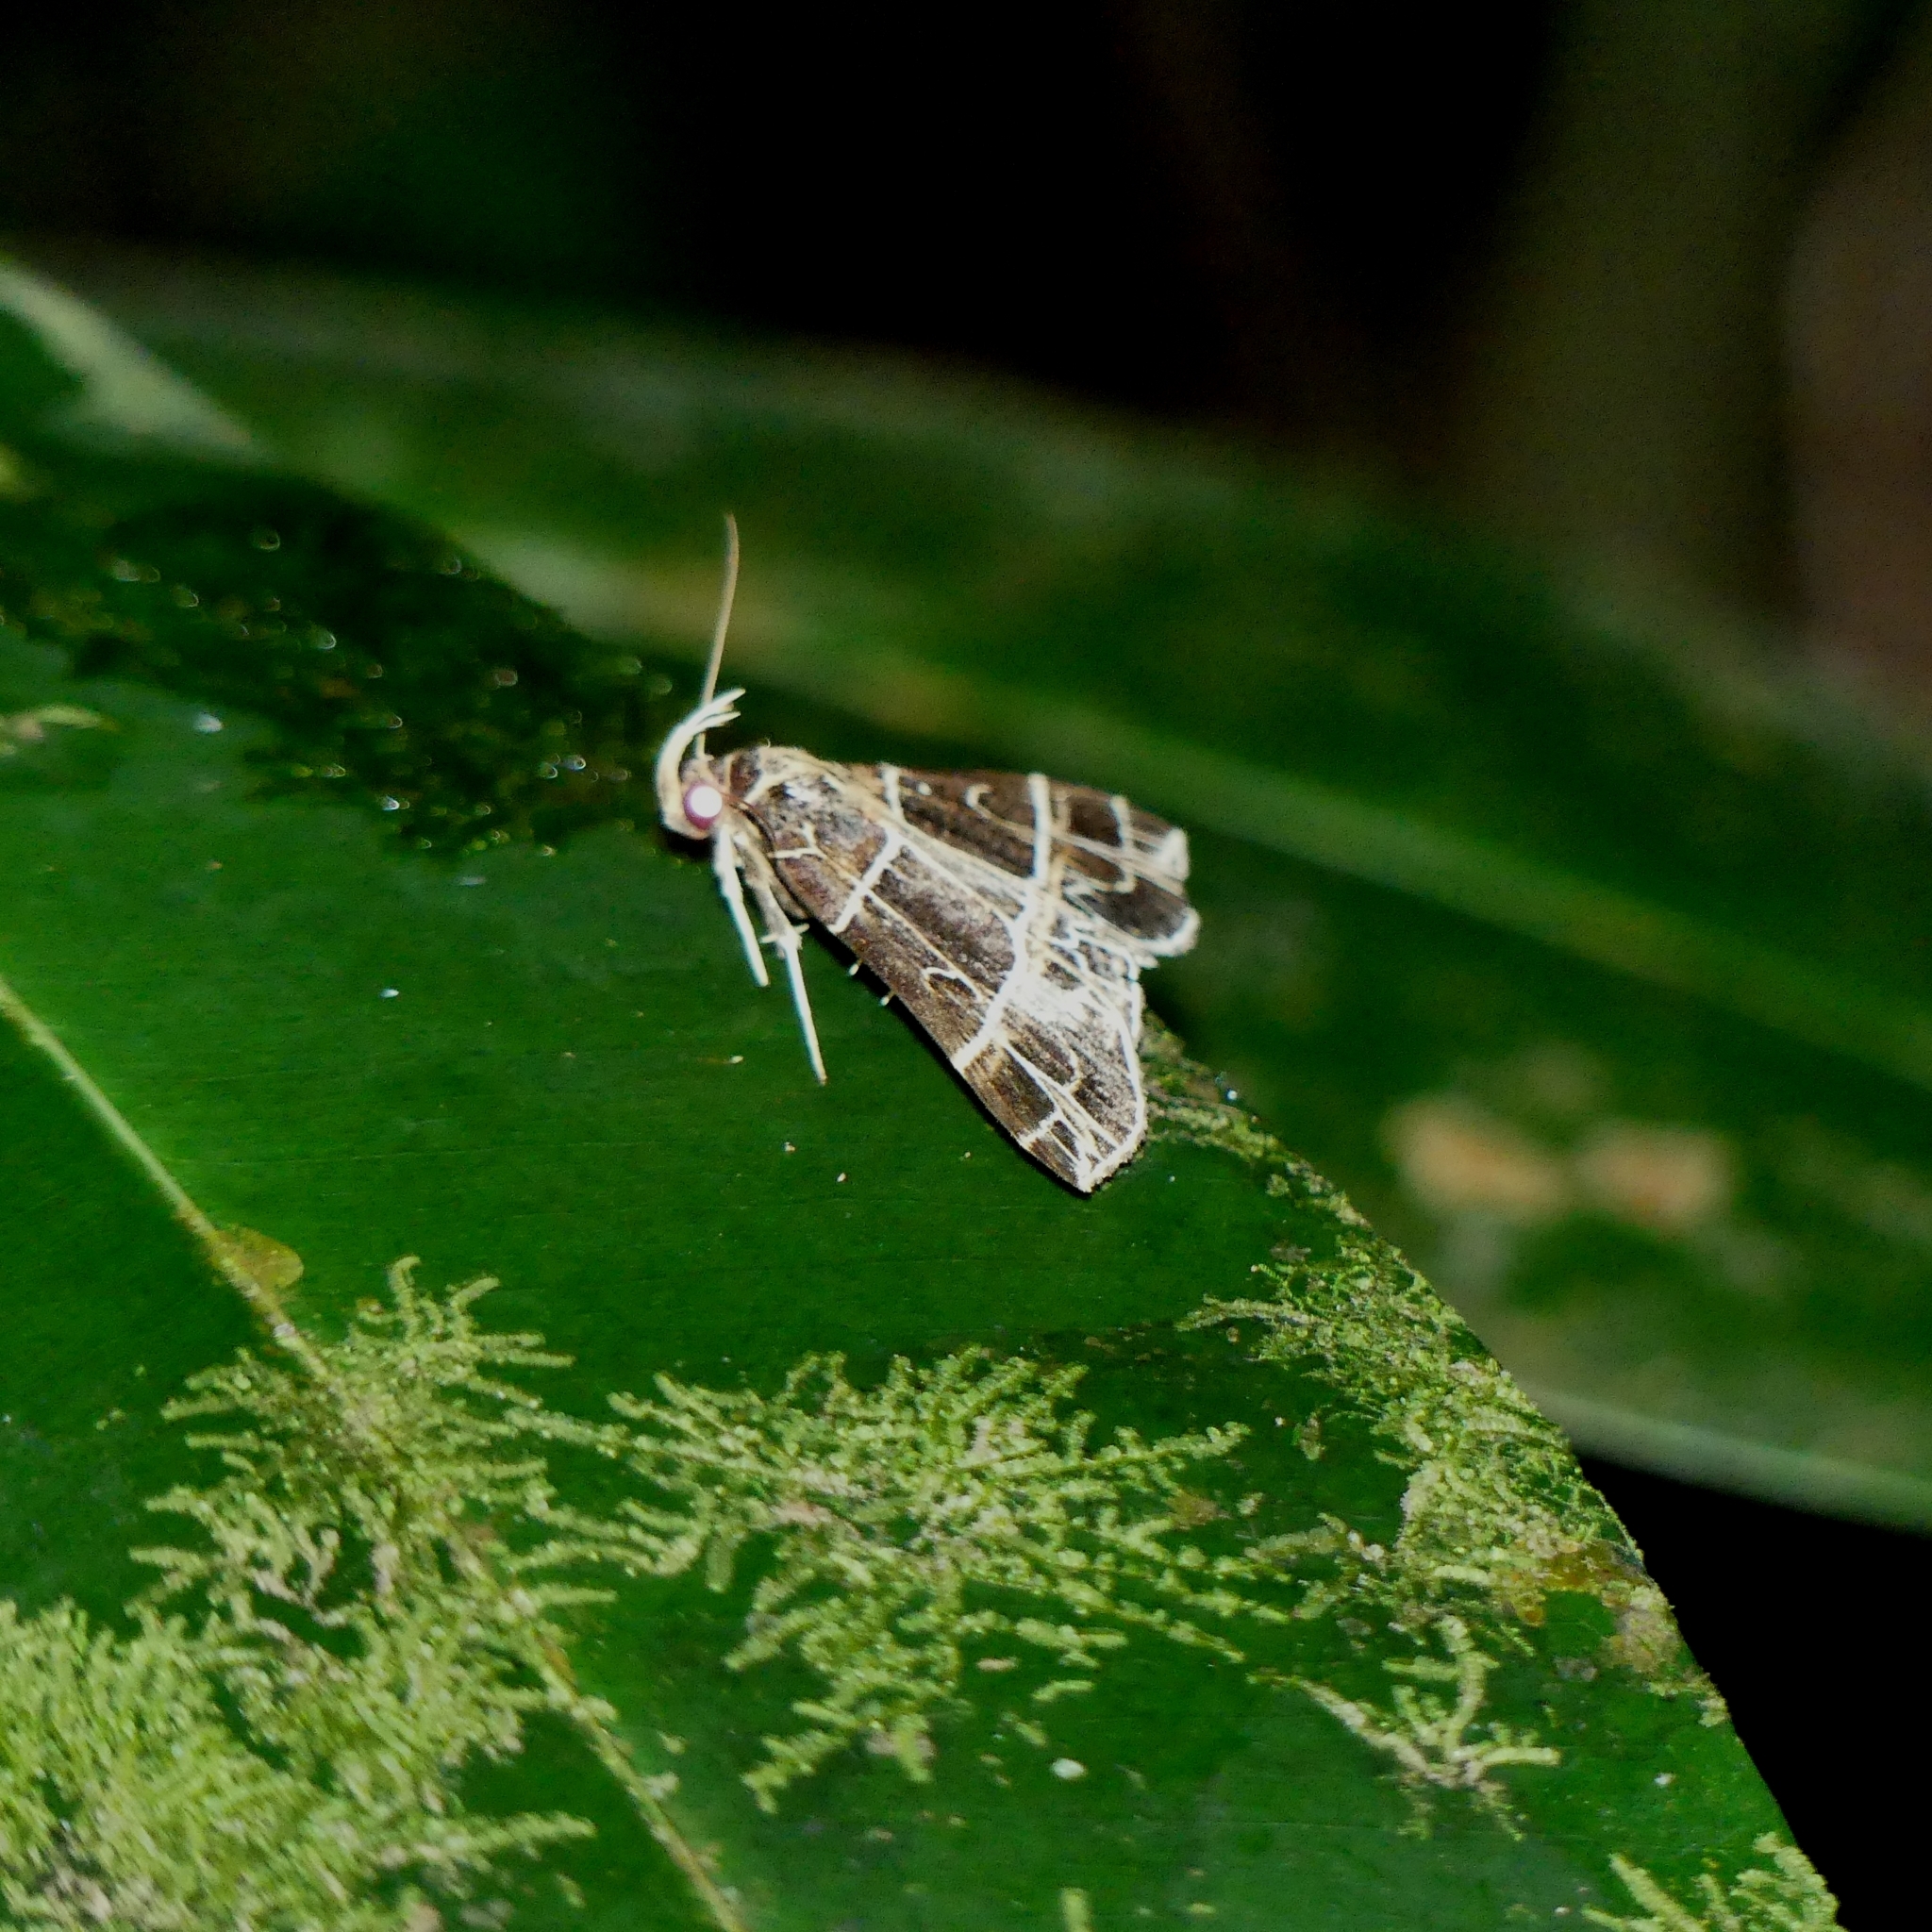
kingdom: Animalia
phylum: Arthropoda
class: Insecta
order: Lepidoptera
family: Erebidae
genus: Rejectaria
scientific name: Rejectaria niciasalis
